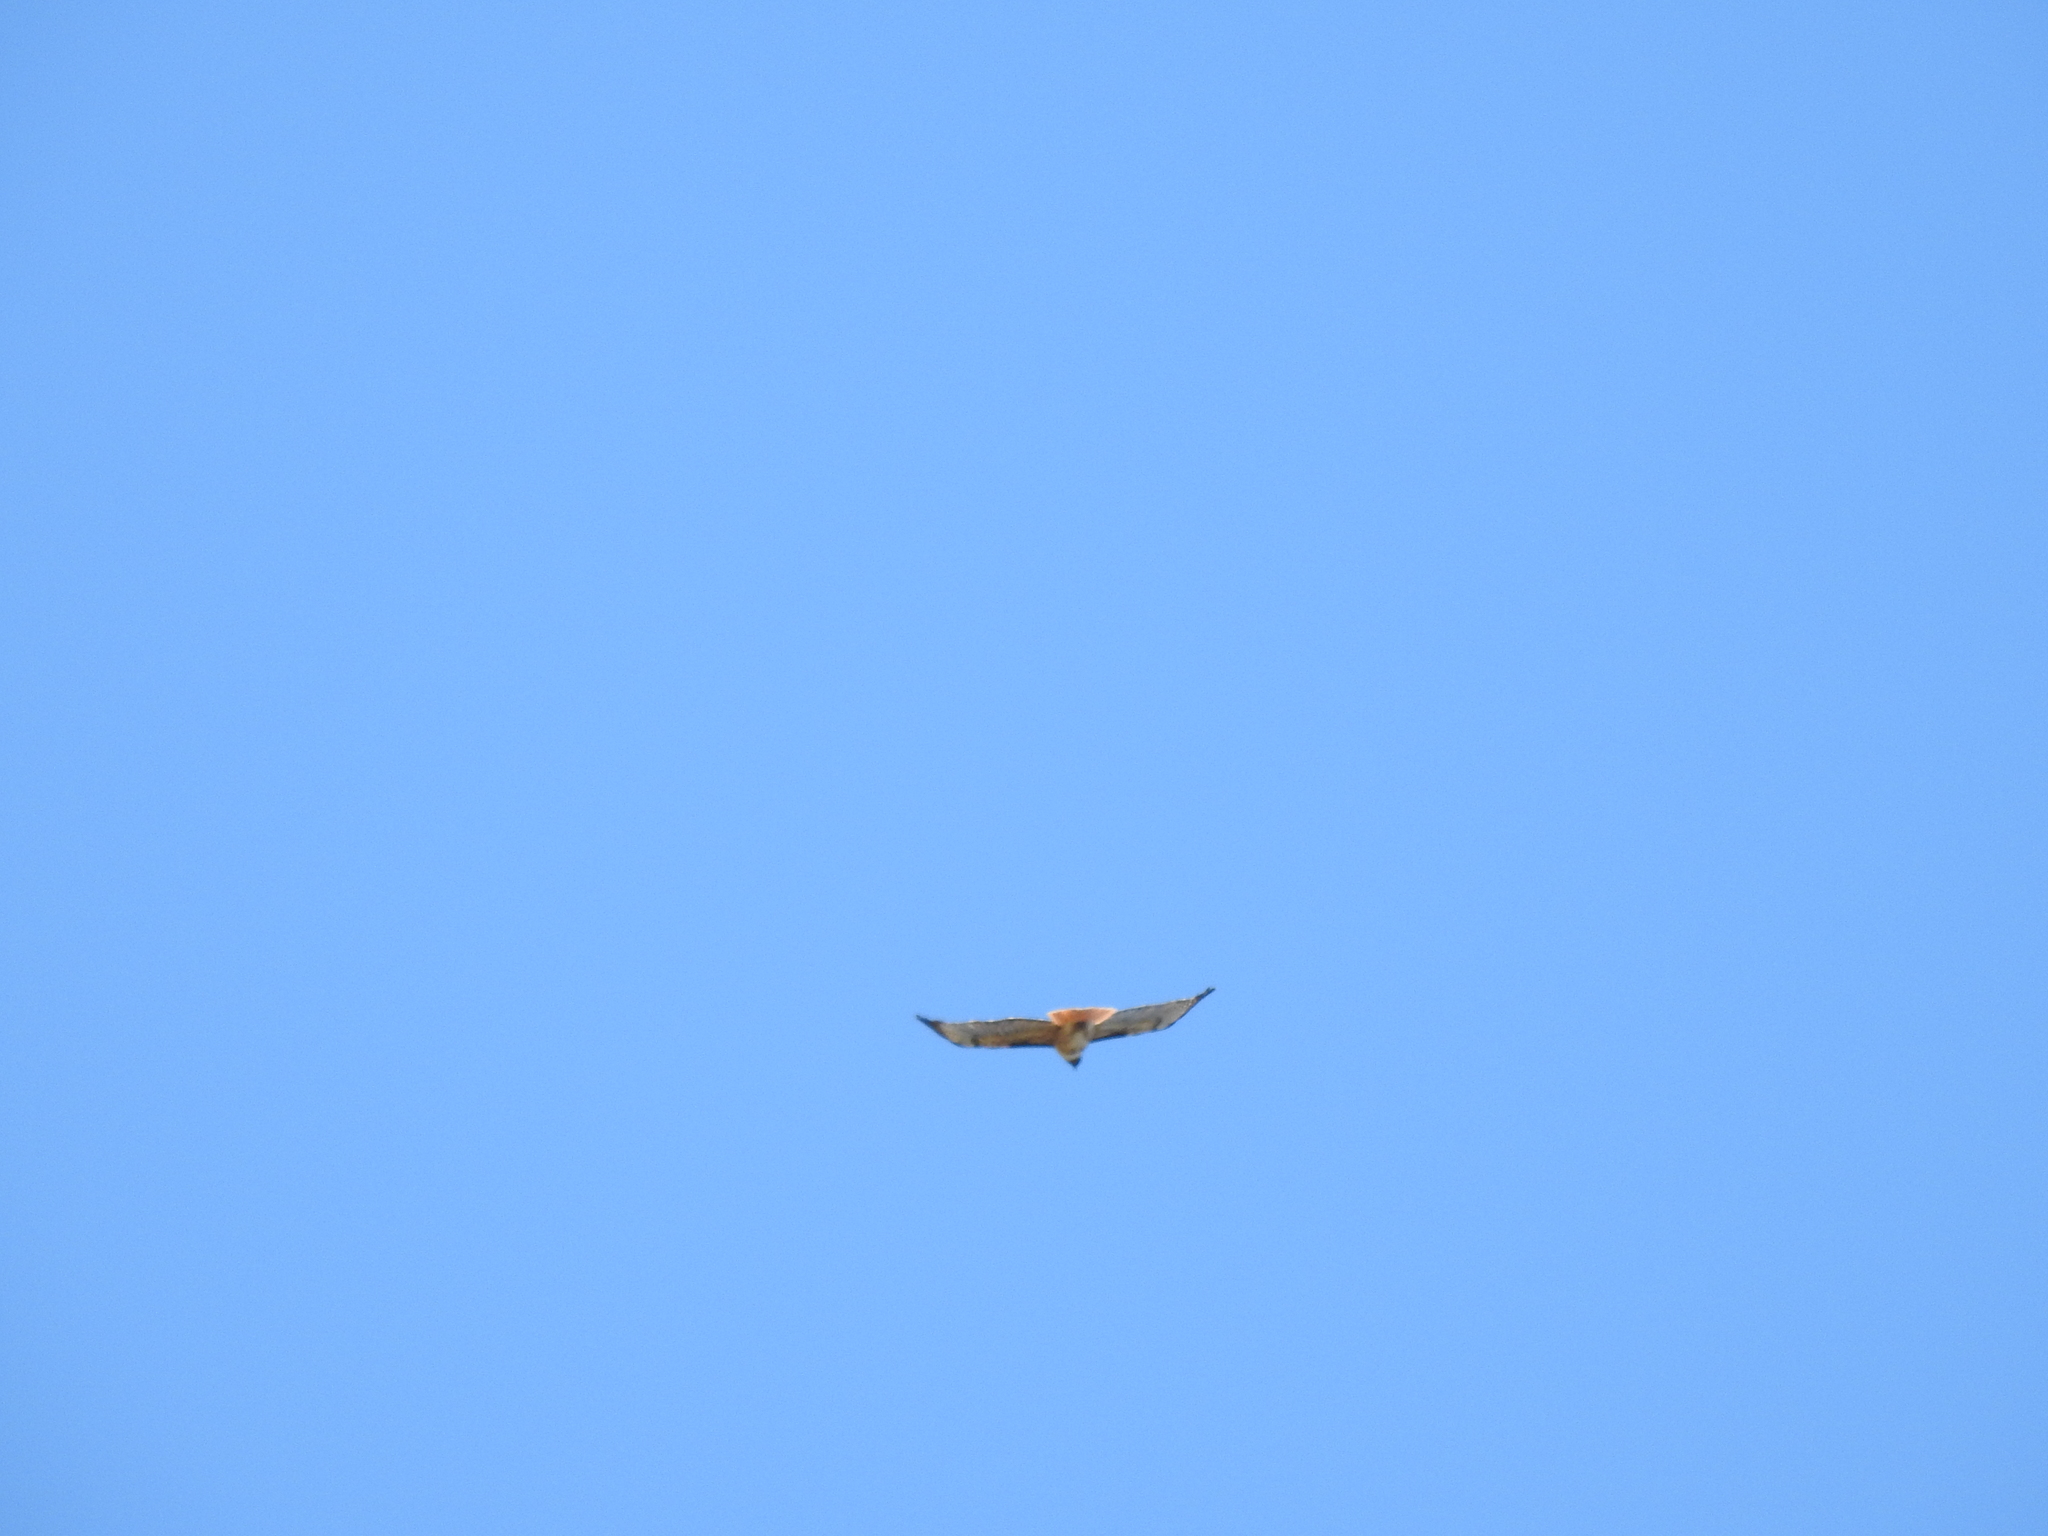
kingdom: Animalia
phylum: Chordata
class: Aves
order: Accipitriformes
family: Accipitridae
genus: Buteo
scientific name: Buteo jamaicensis
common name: Red-tailed hawk
